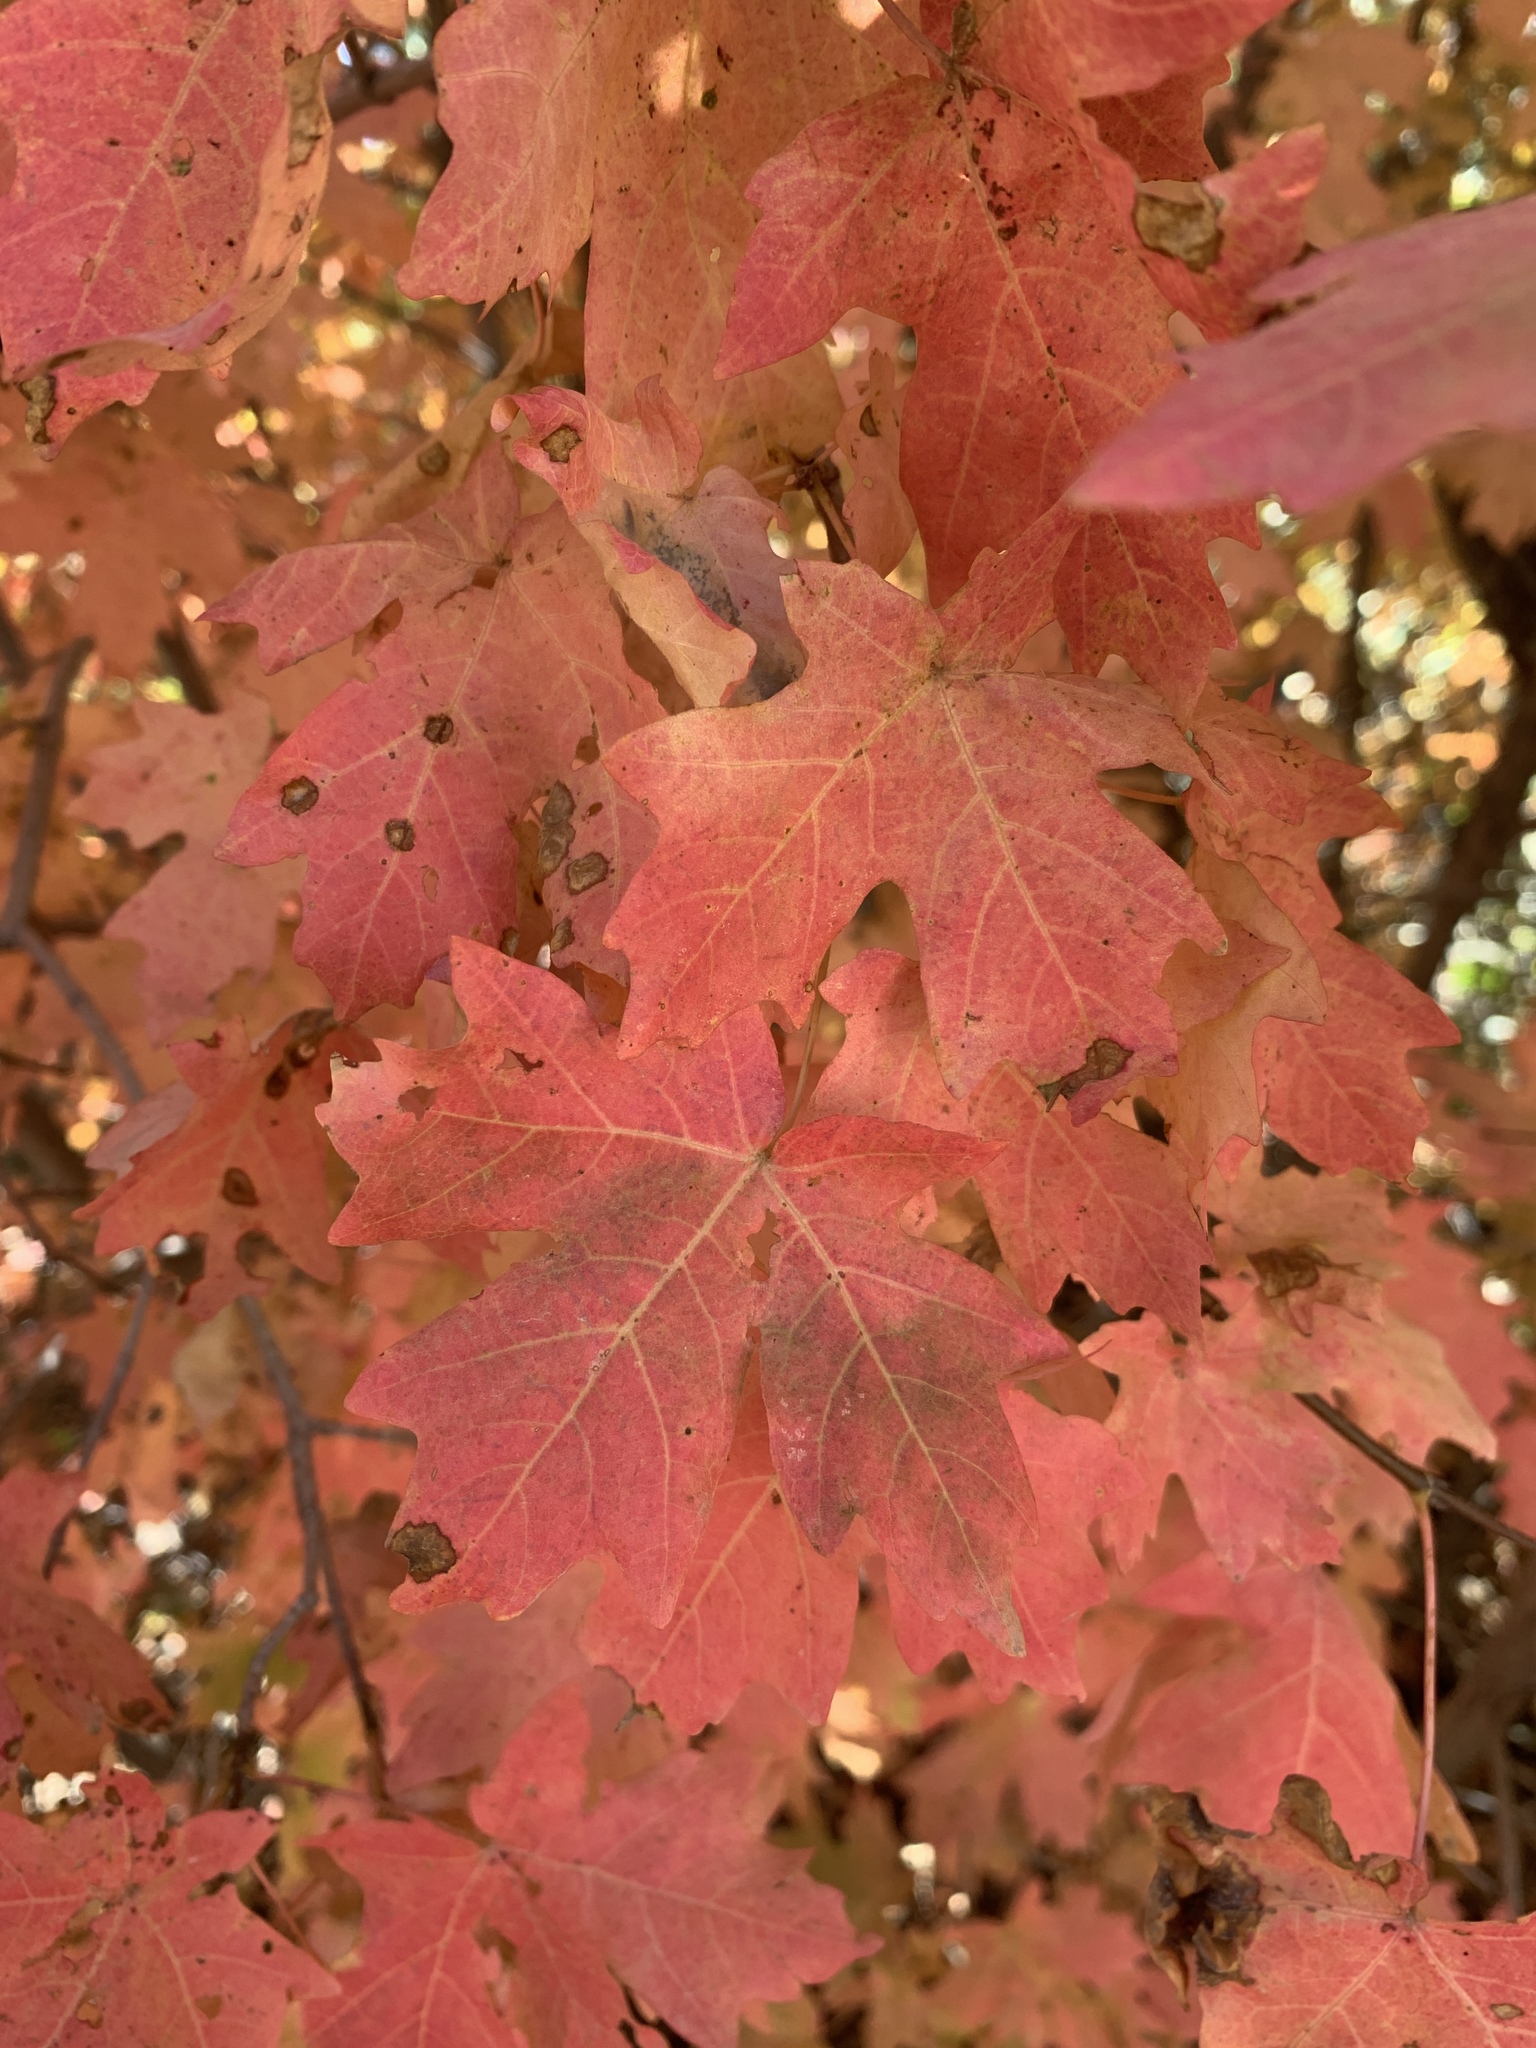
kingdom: Plantae
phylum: Tracheophyta
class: Magnoliopsida
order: Sapindales
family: Sapindaceae
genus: Acer
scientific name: Acer grandidentatum
